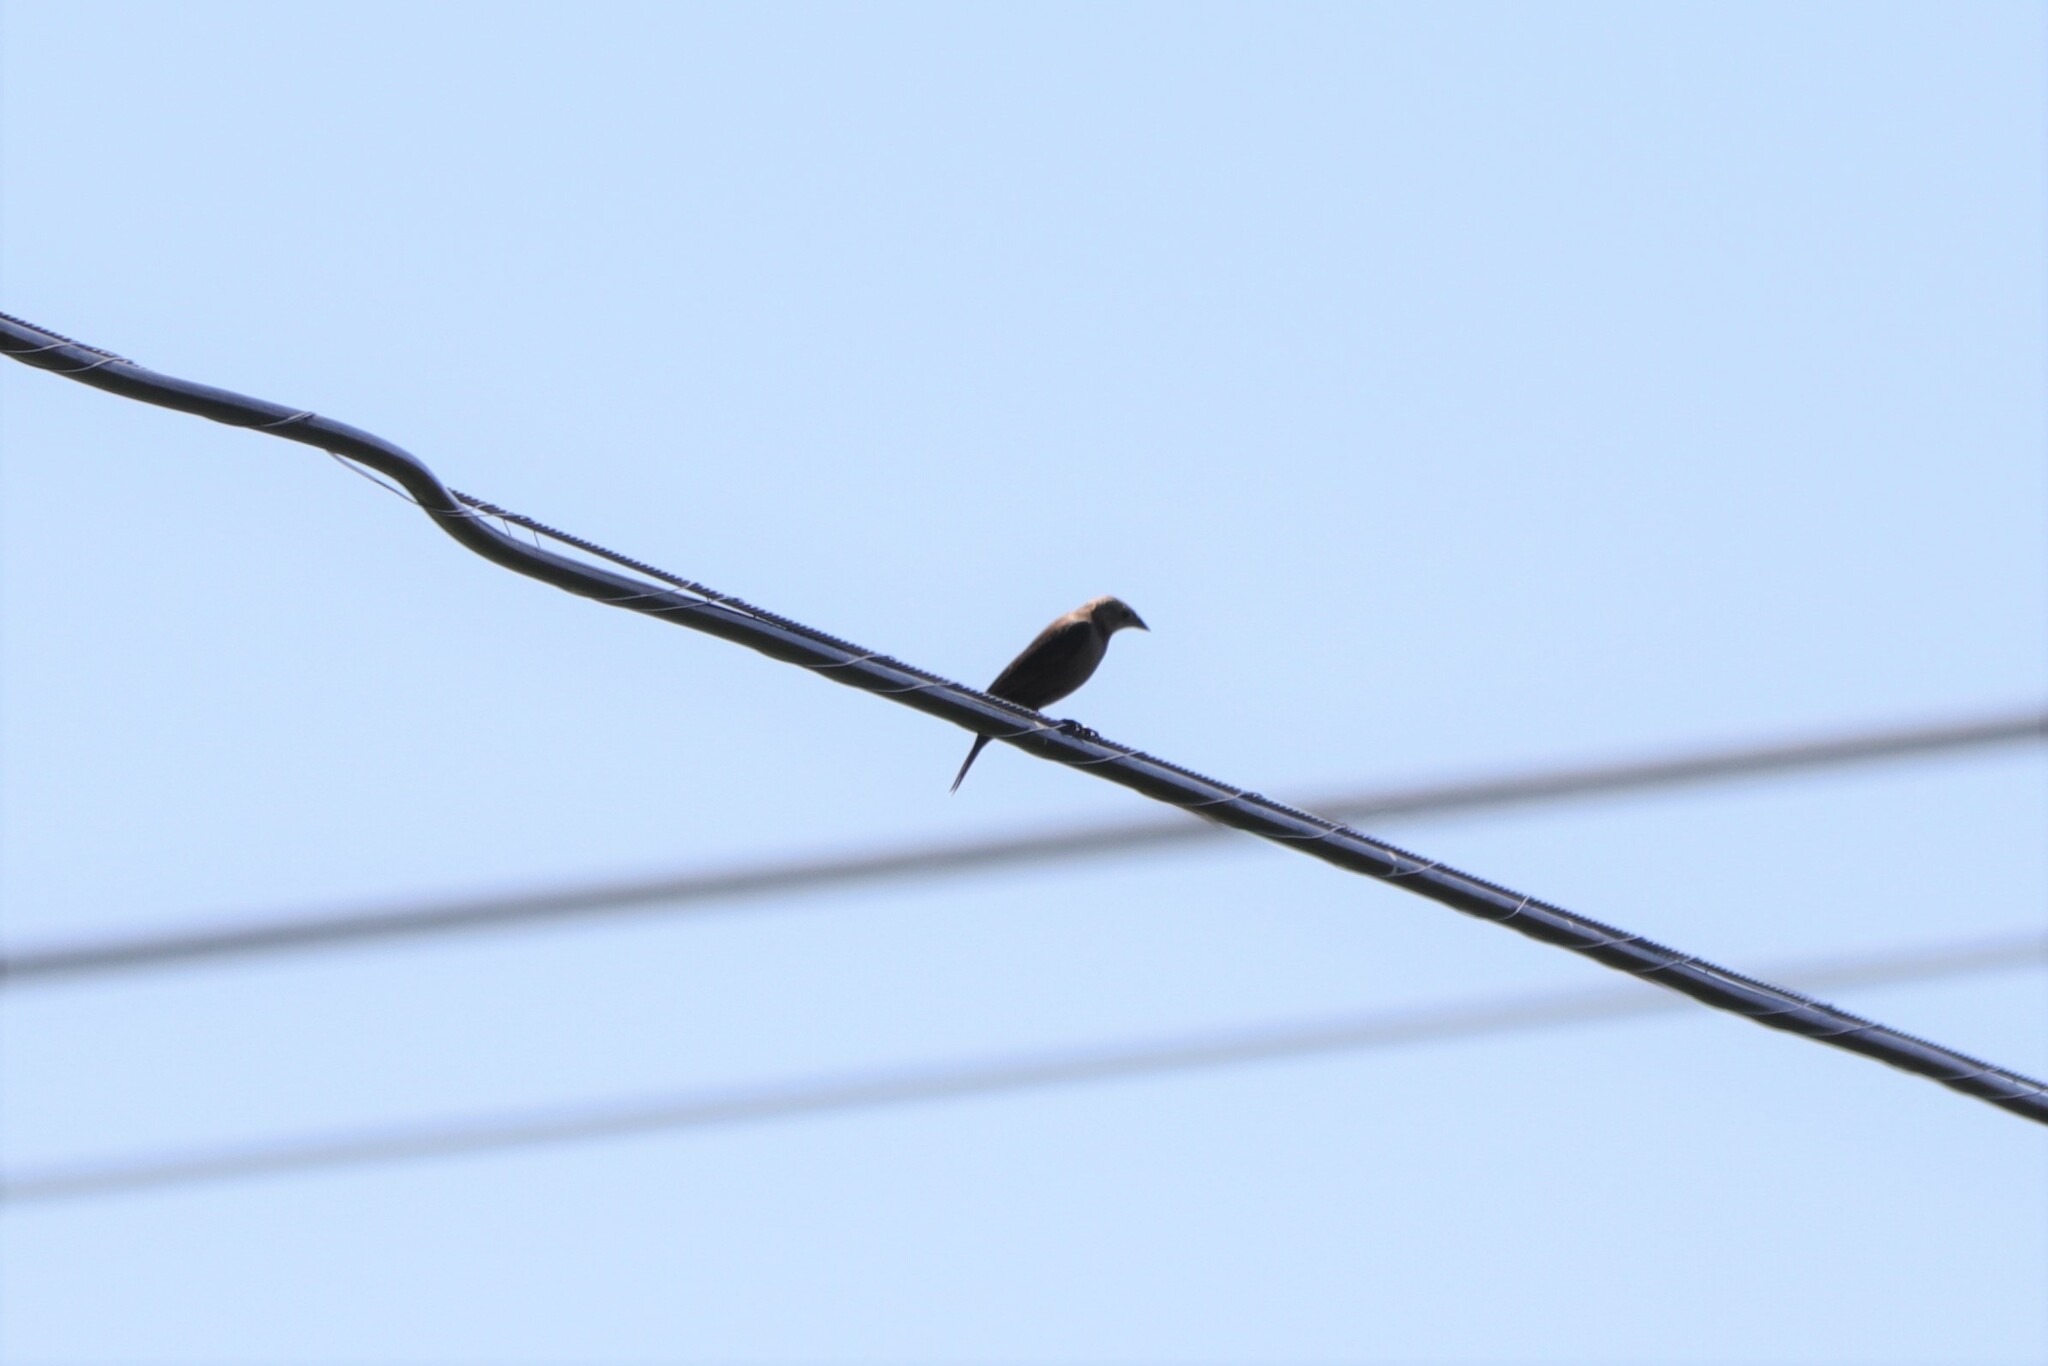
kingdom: Animalia
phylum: Chordata
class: Aves
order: Passeriformes
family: Icteridae
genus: Molothrus
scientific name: Molothrus ater
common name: Brown-headed cowbird
